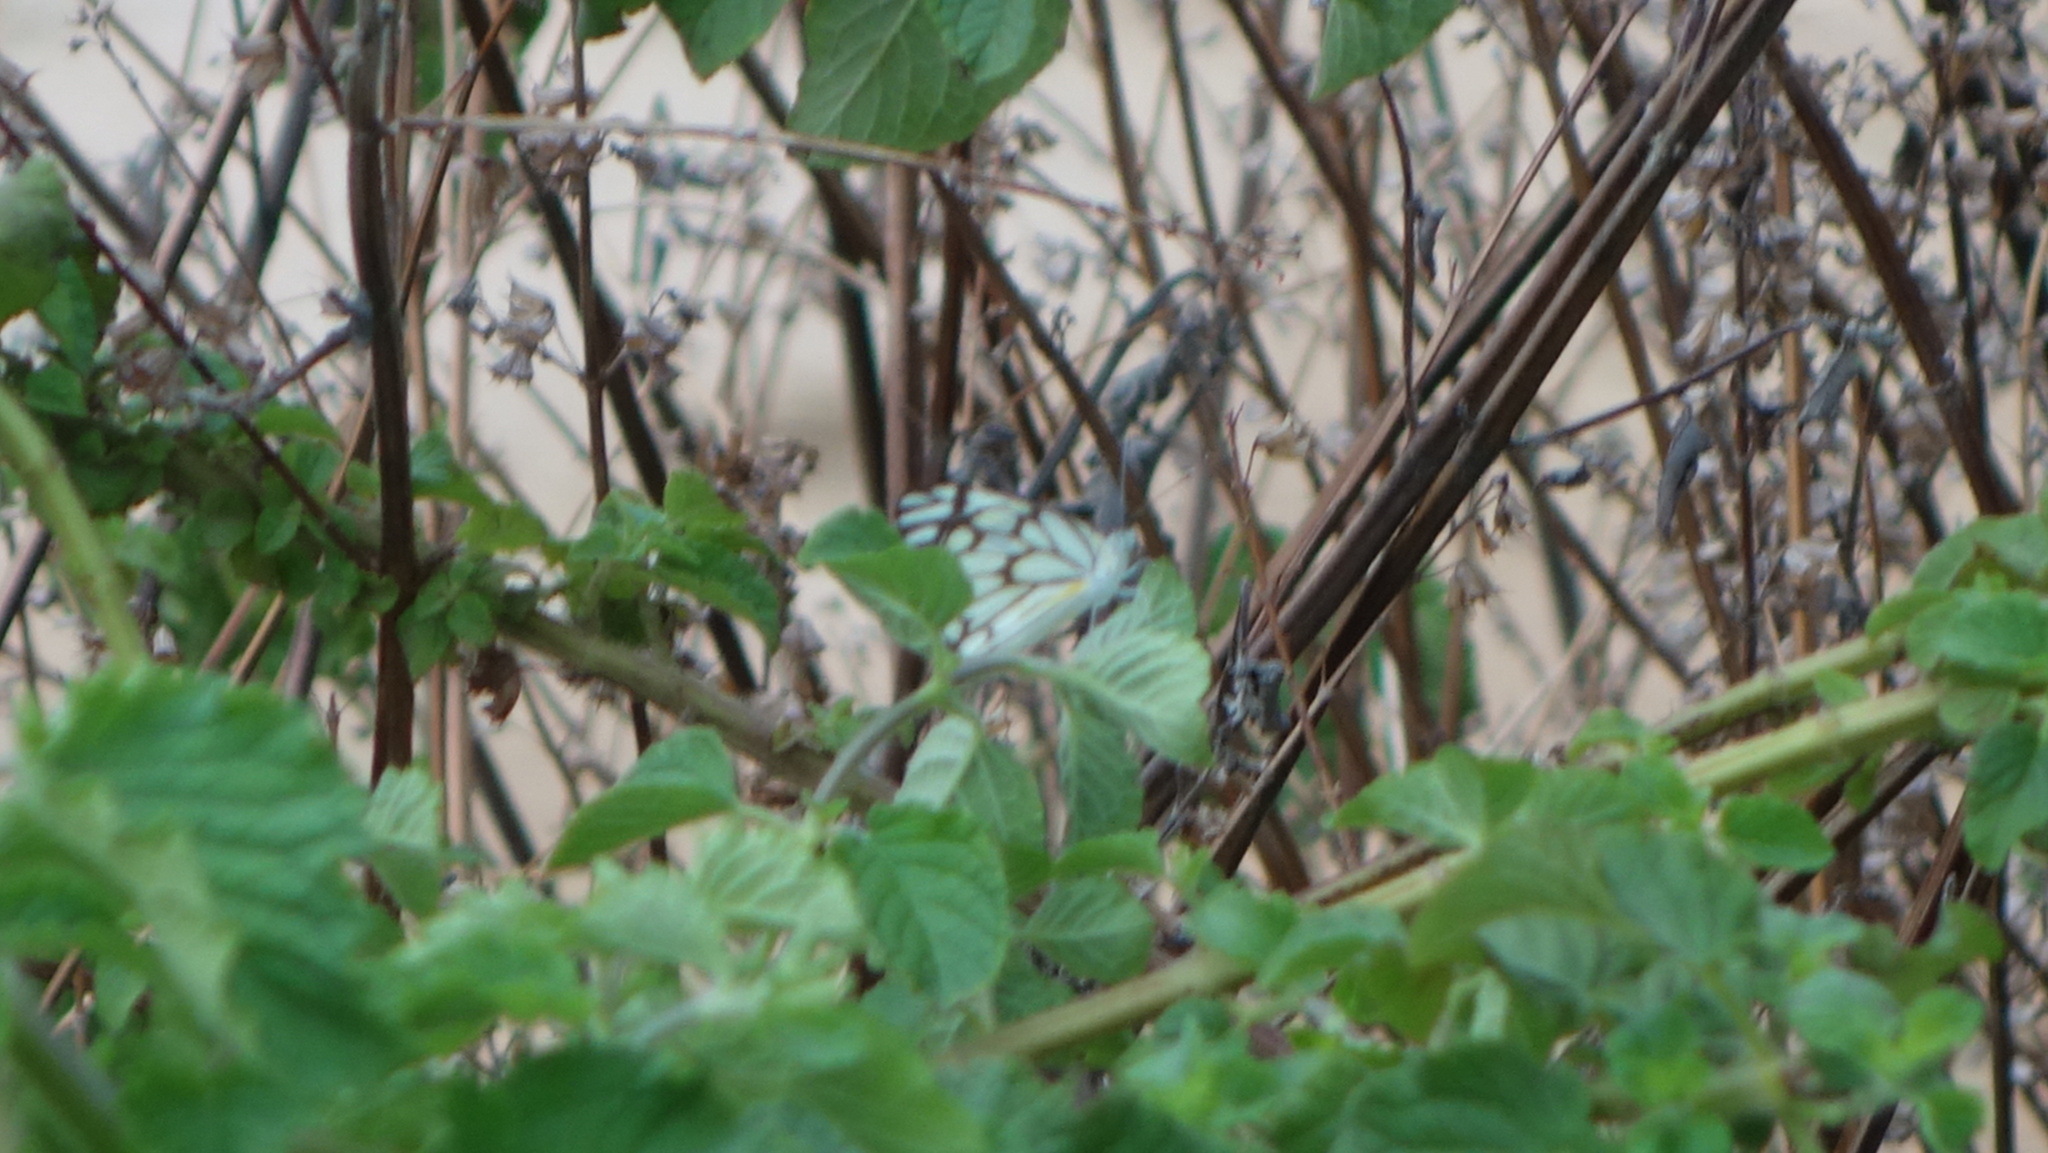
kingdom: Animalia
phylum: Arthropoda
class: Insecta
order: Lepidoptera
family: Pieridae
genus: Belenois
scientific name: Belenois aurota
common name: Brown-veined white
